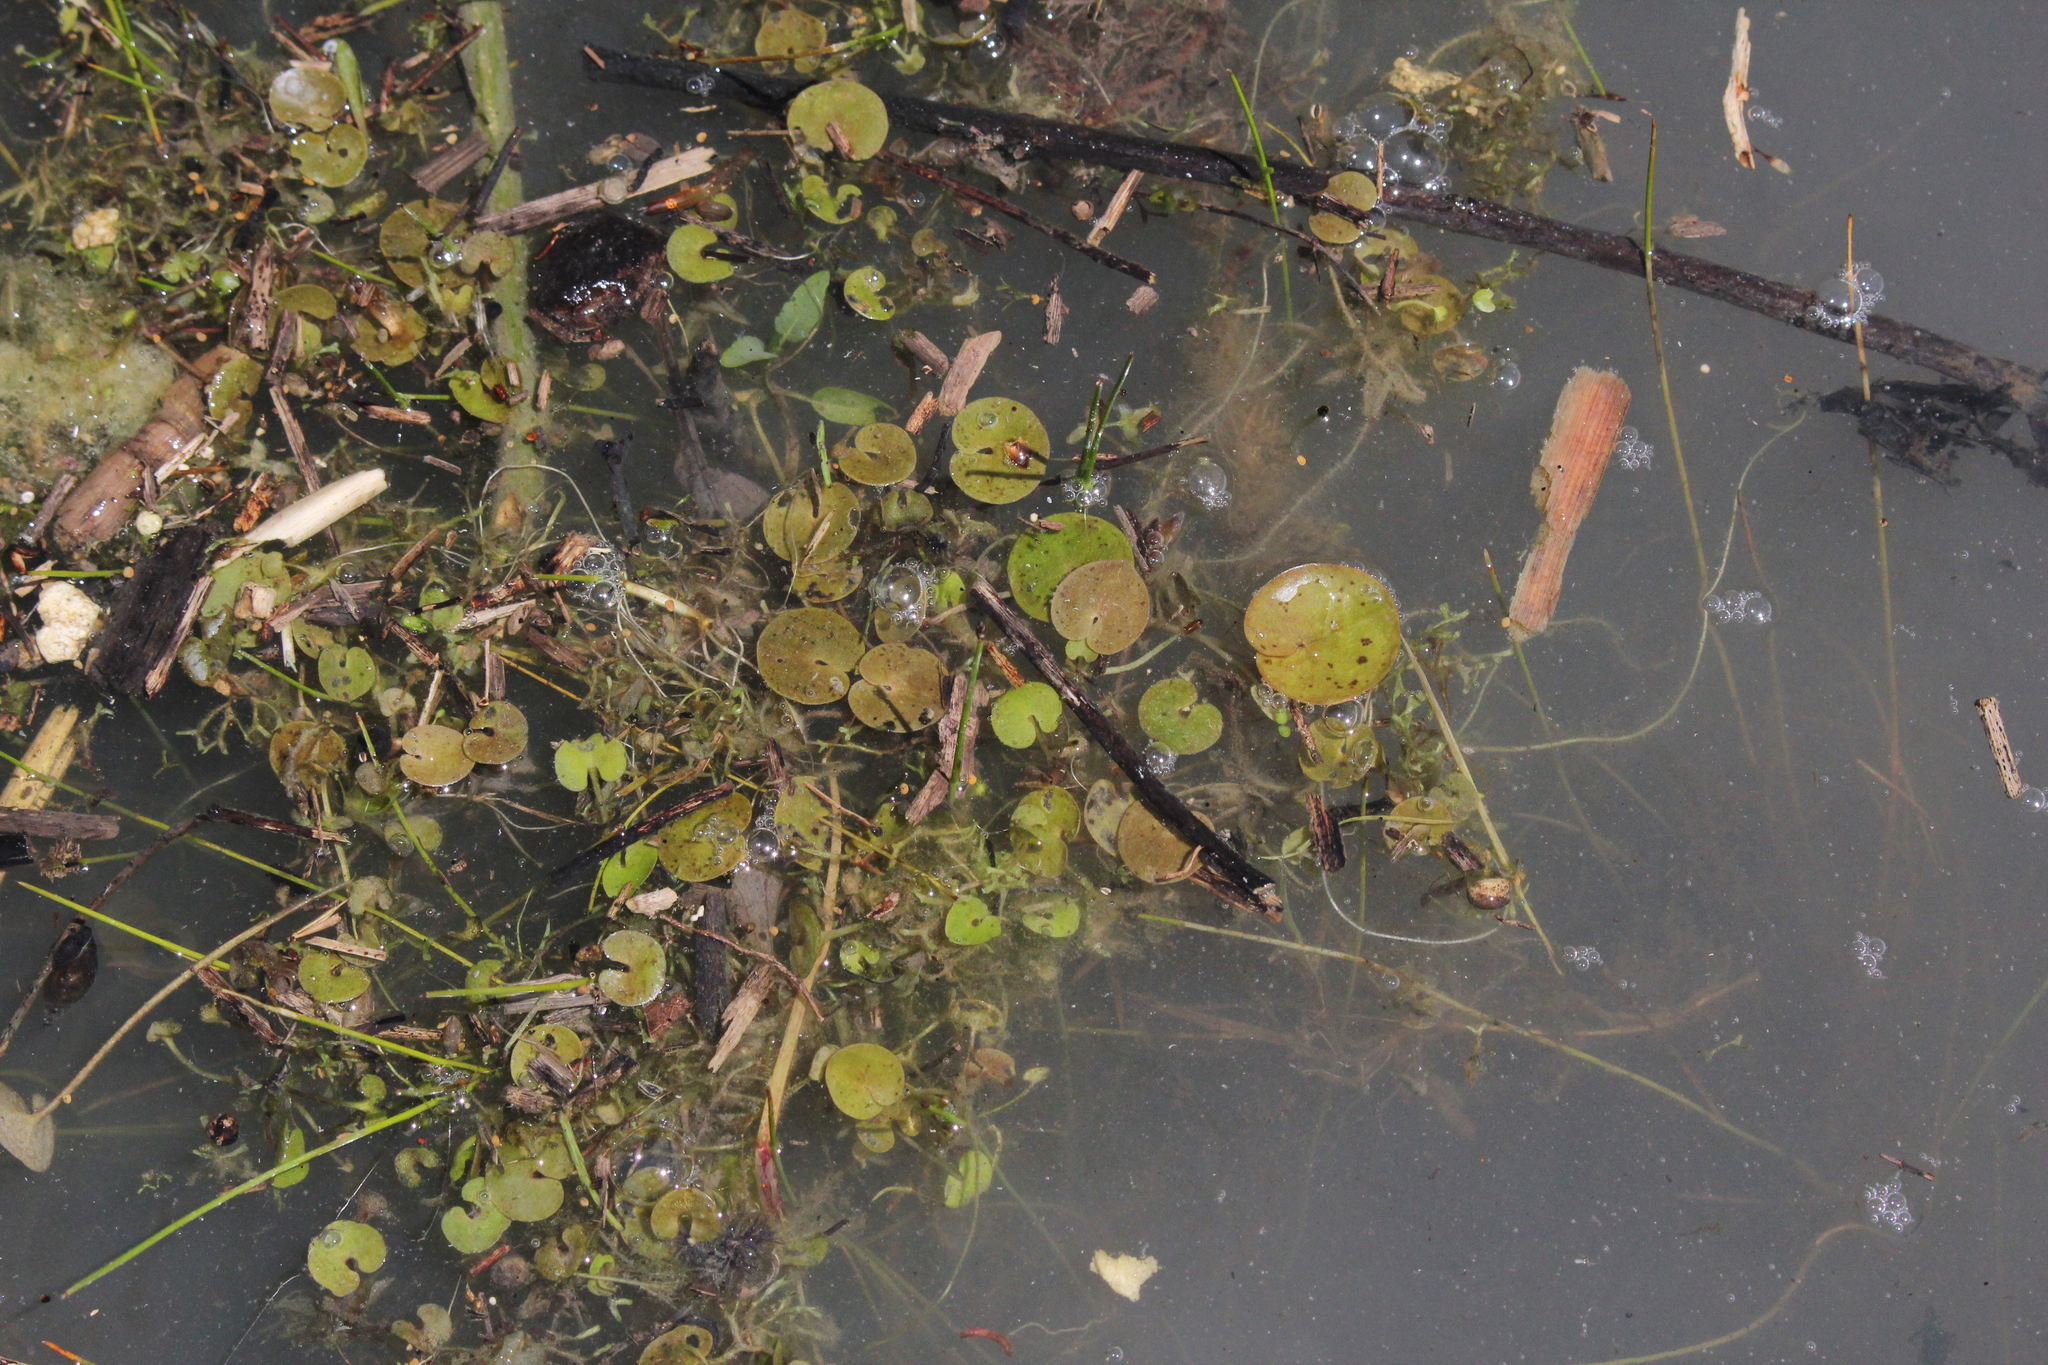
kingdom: Plantae
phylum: Tracheophyta
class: Liliopsida
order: Alismatales
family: Hydrocharitaceae
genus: Hydrocharis
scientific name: Hydrocharis morsus-ranae
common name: Frogbit
